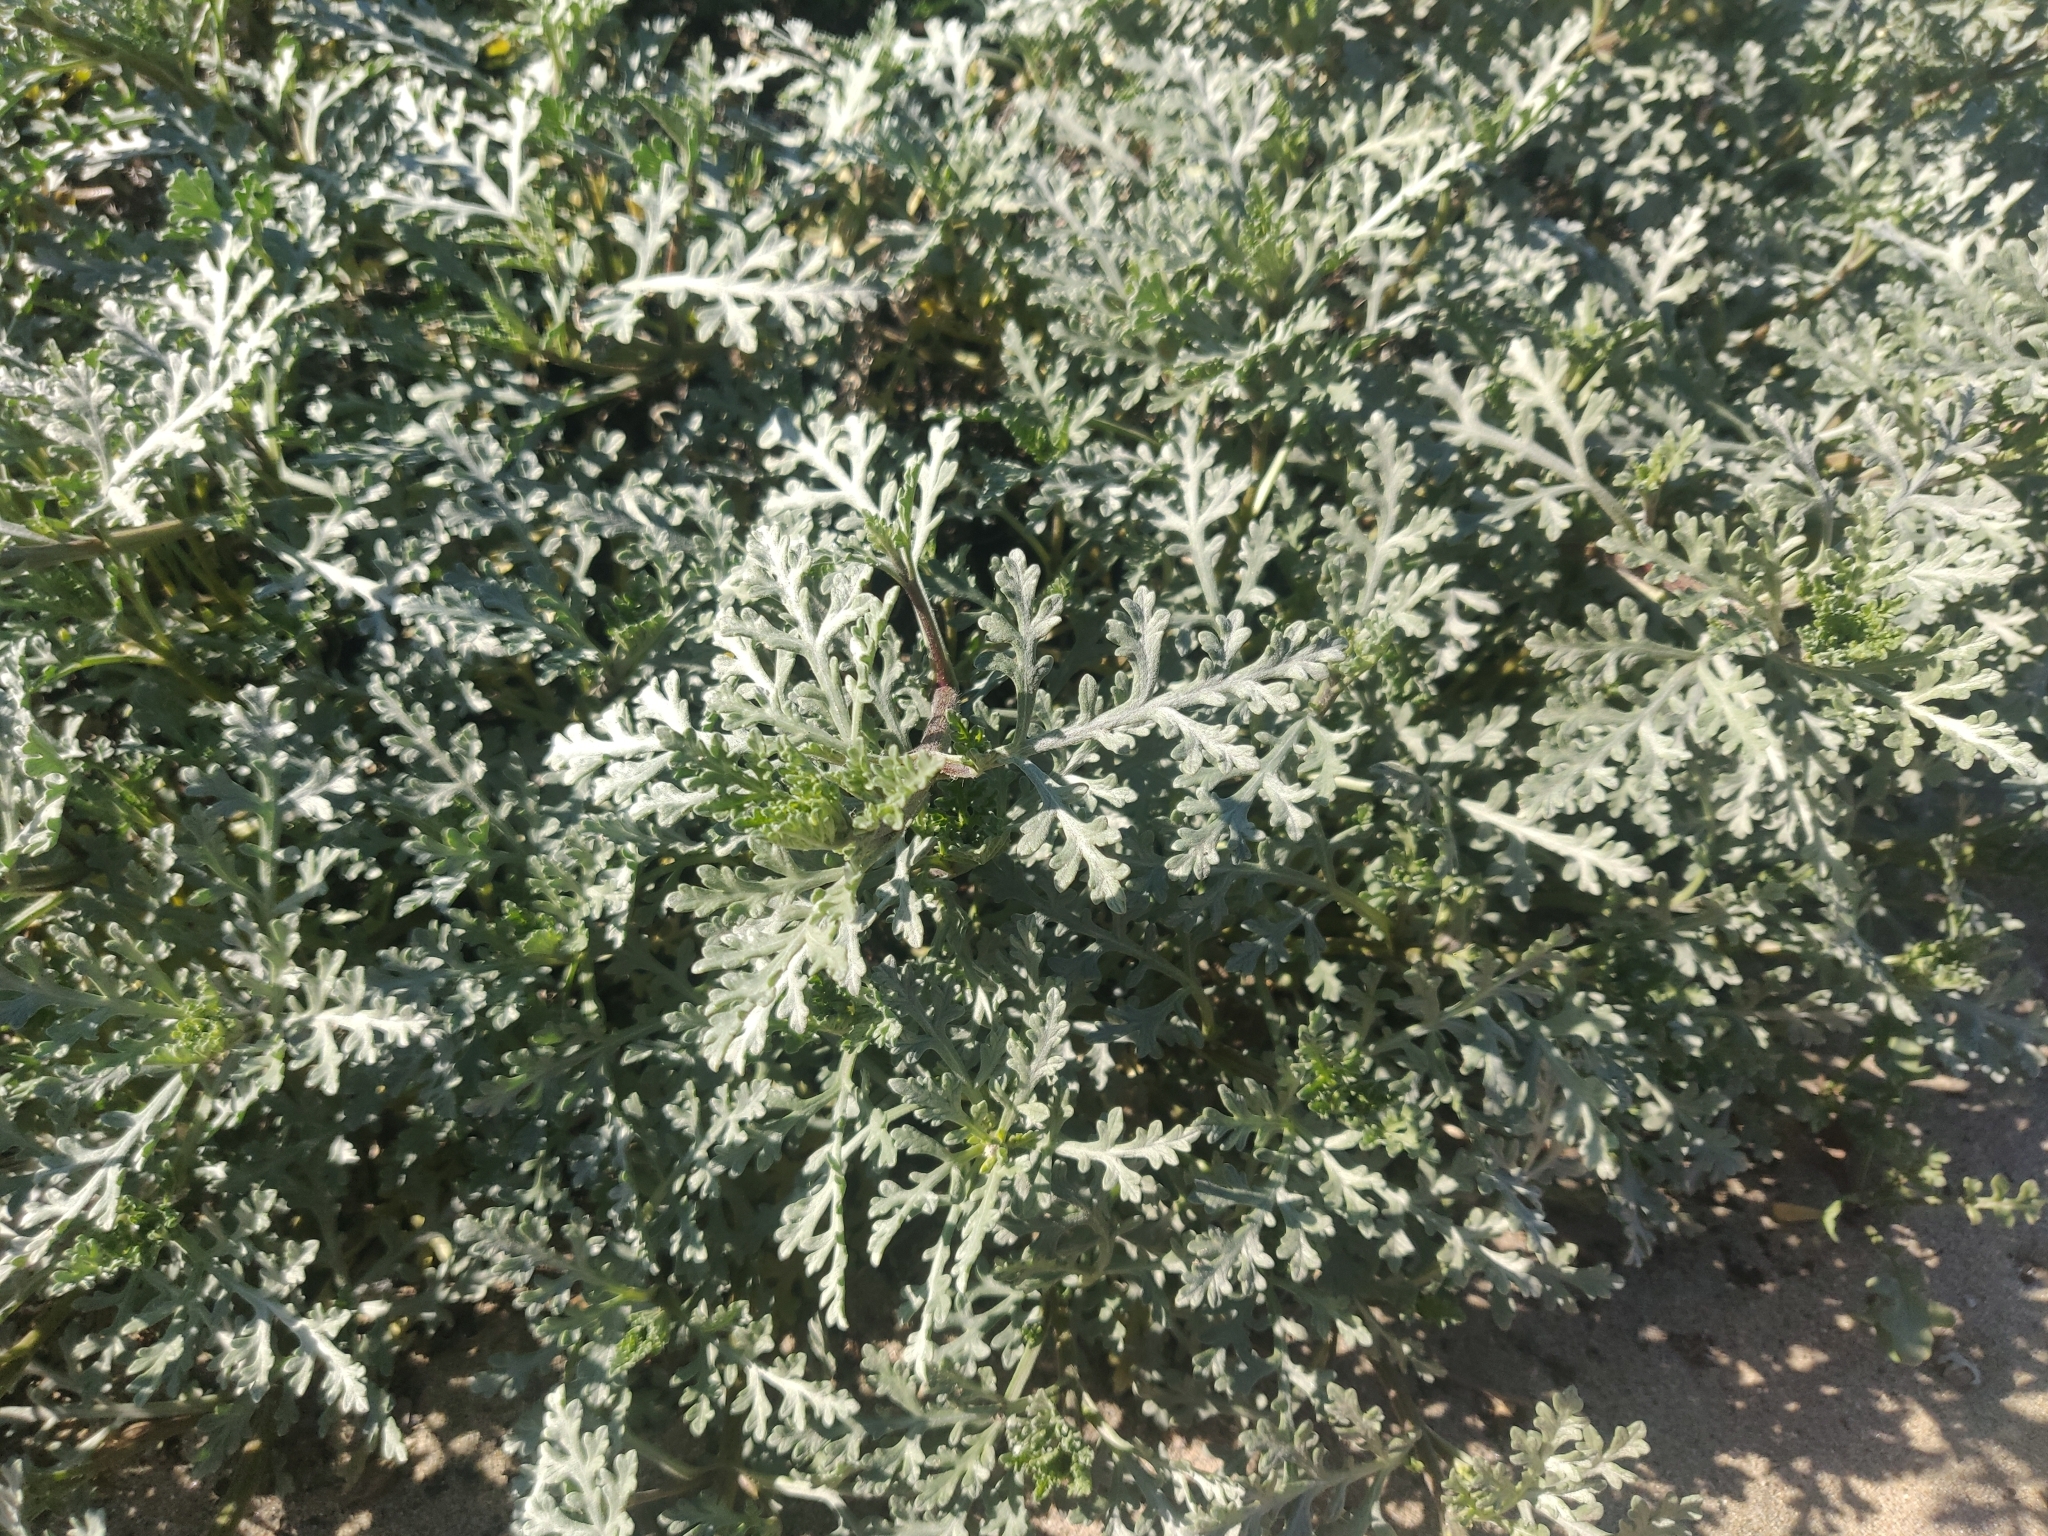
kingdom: Plantae
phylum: Tracheophyta
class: Magnoliopsida
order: Asterales
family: Asteraceae
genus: Ambrosia
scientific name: Ambrosia chamissonis
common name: Beachbur
